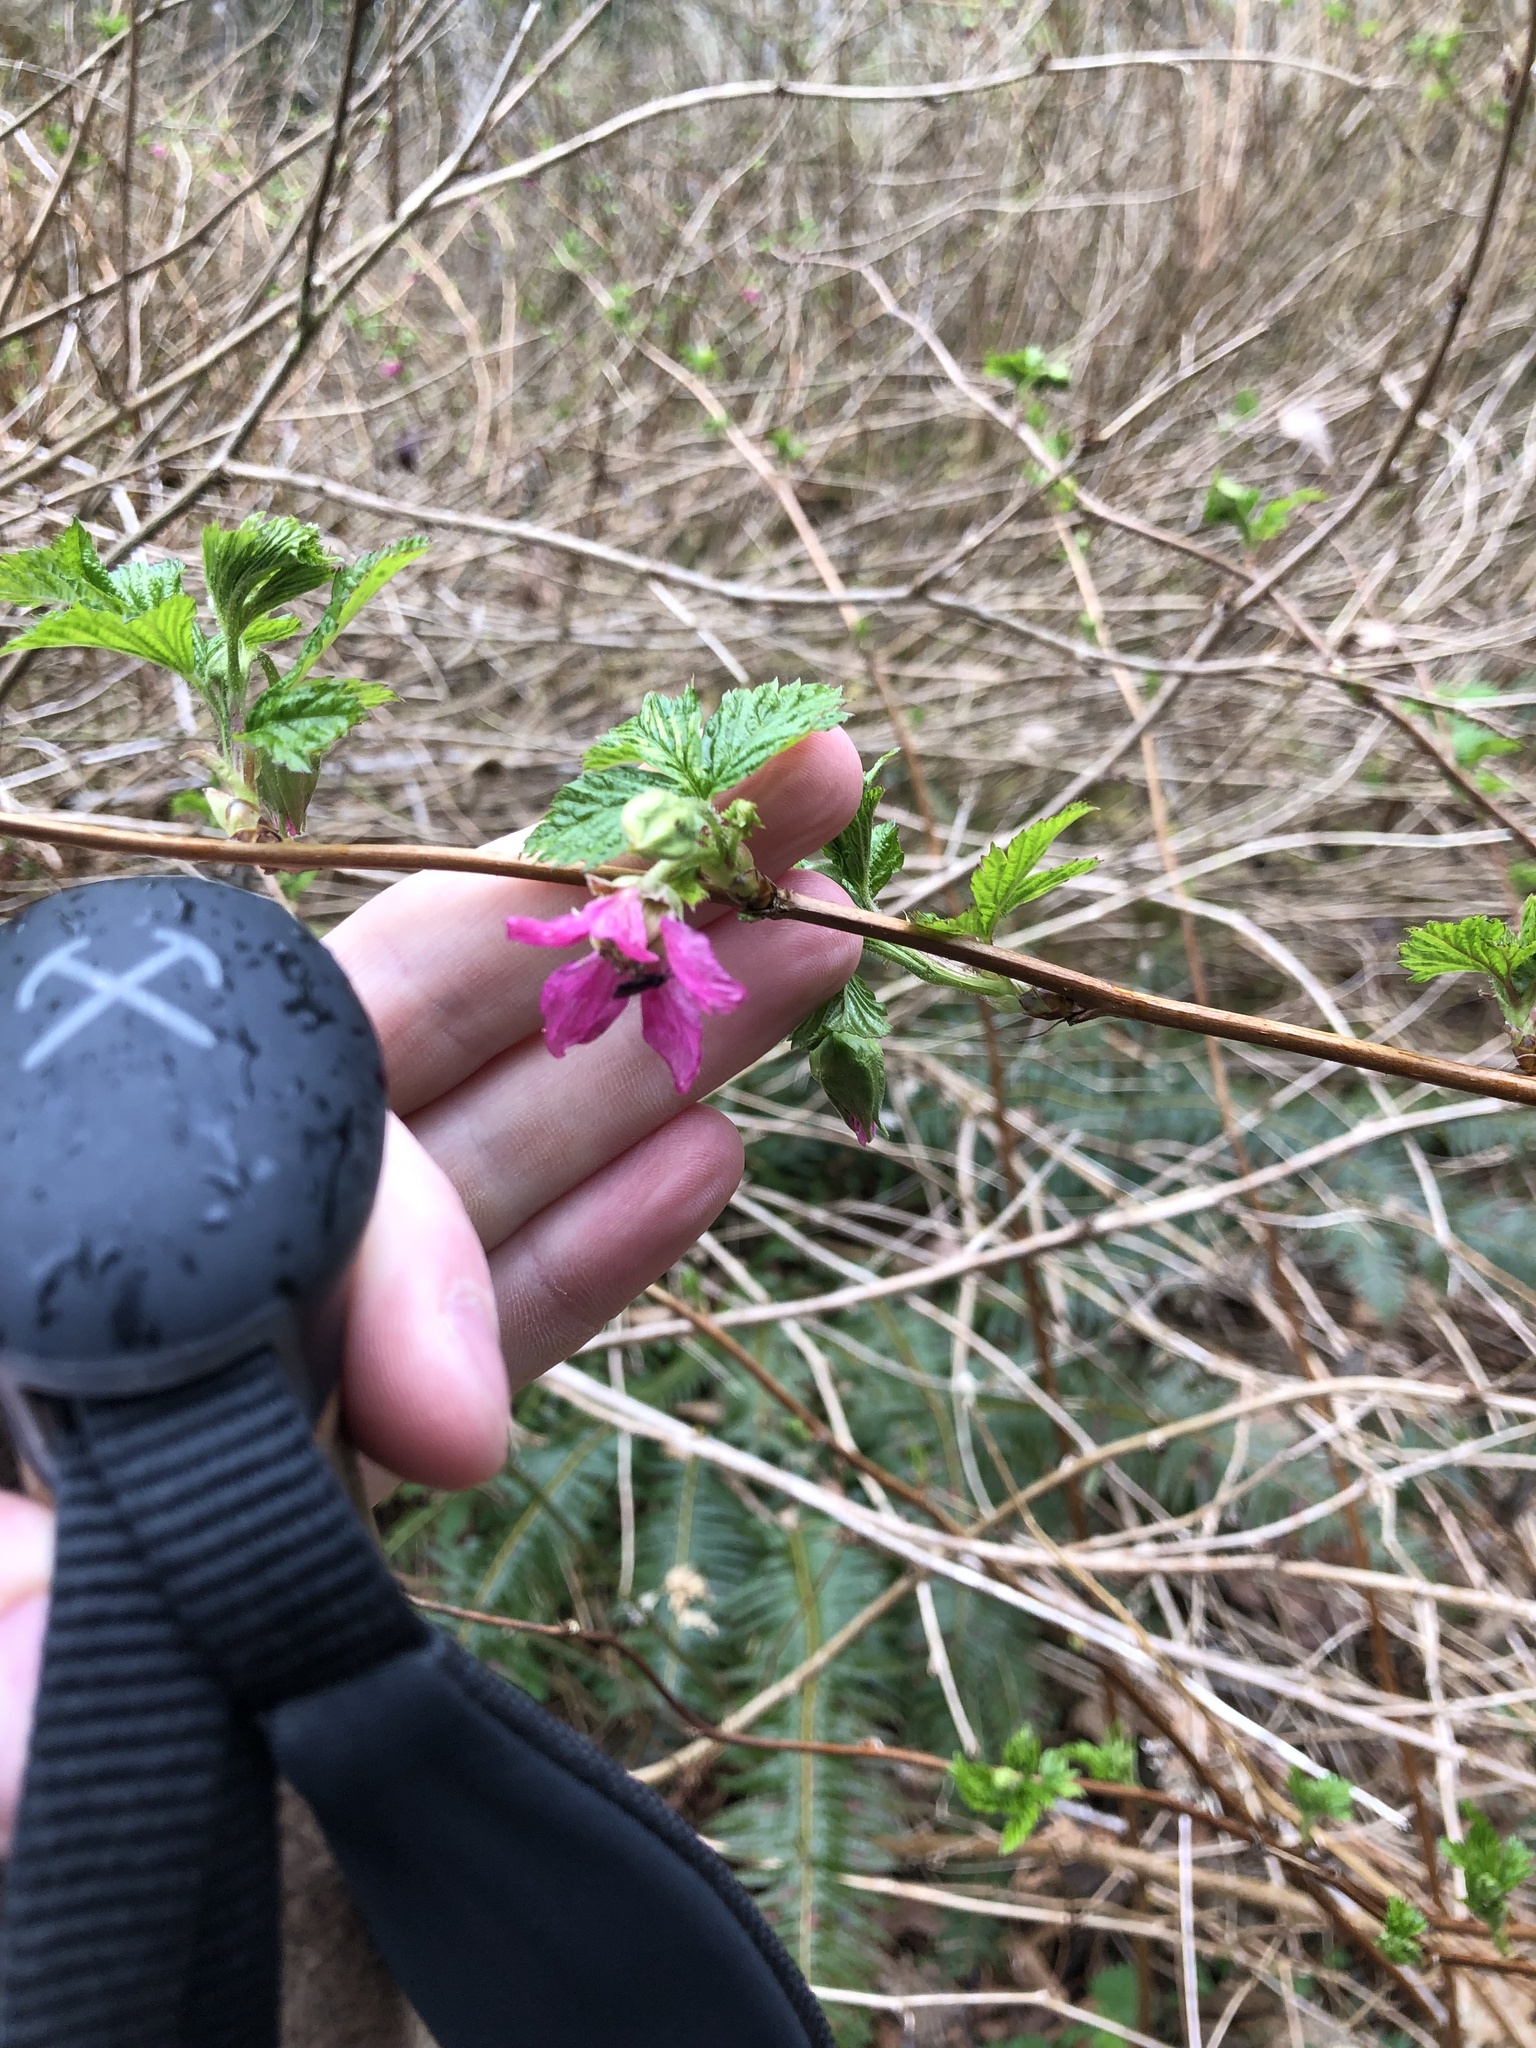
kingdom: Plantae
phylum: Tracheophyta
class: Magnoliopsida
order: Rosales
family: Rosaceae
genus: Rubus
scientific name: Rubus spectabilis
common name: Salmonberry
